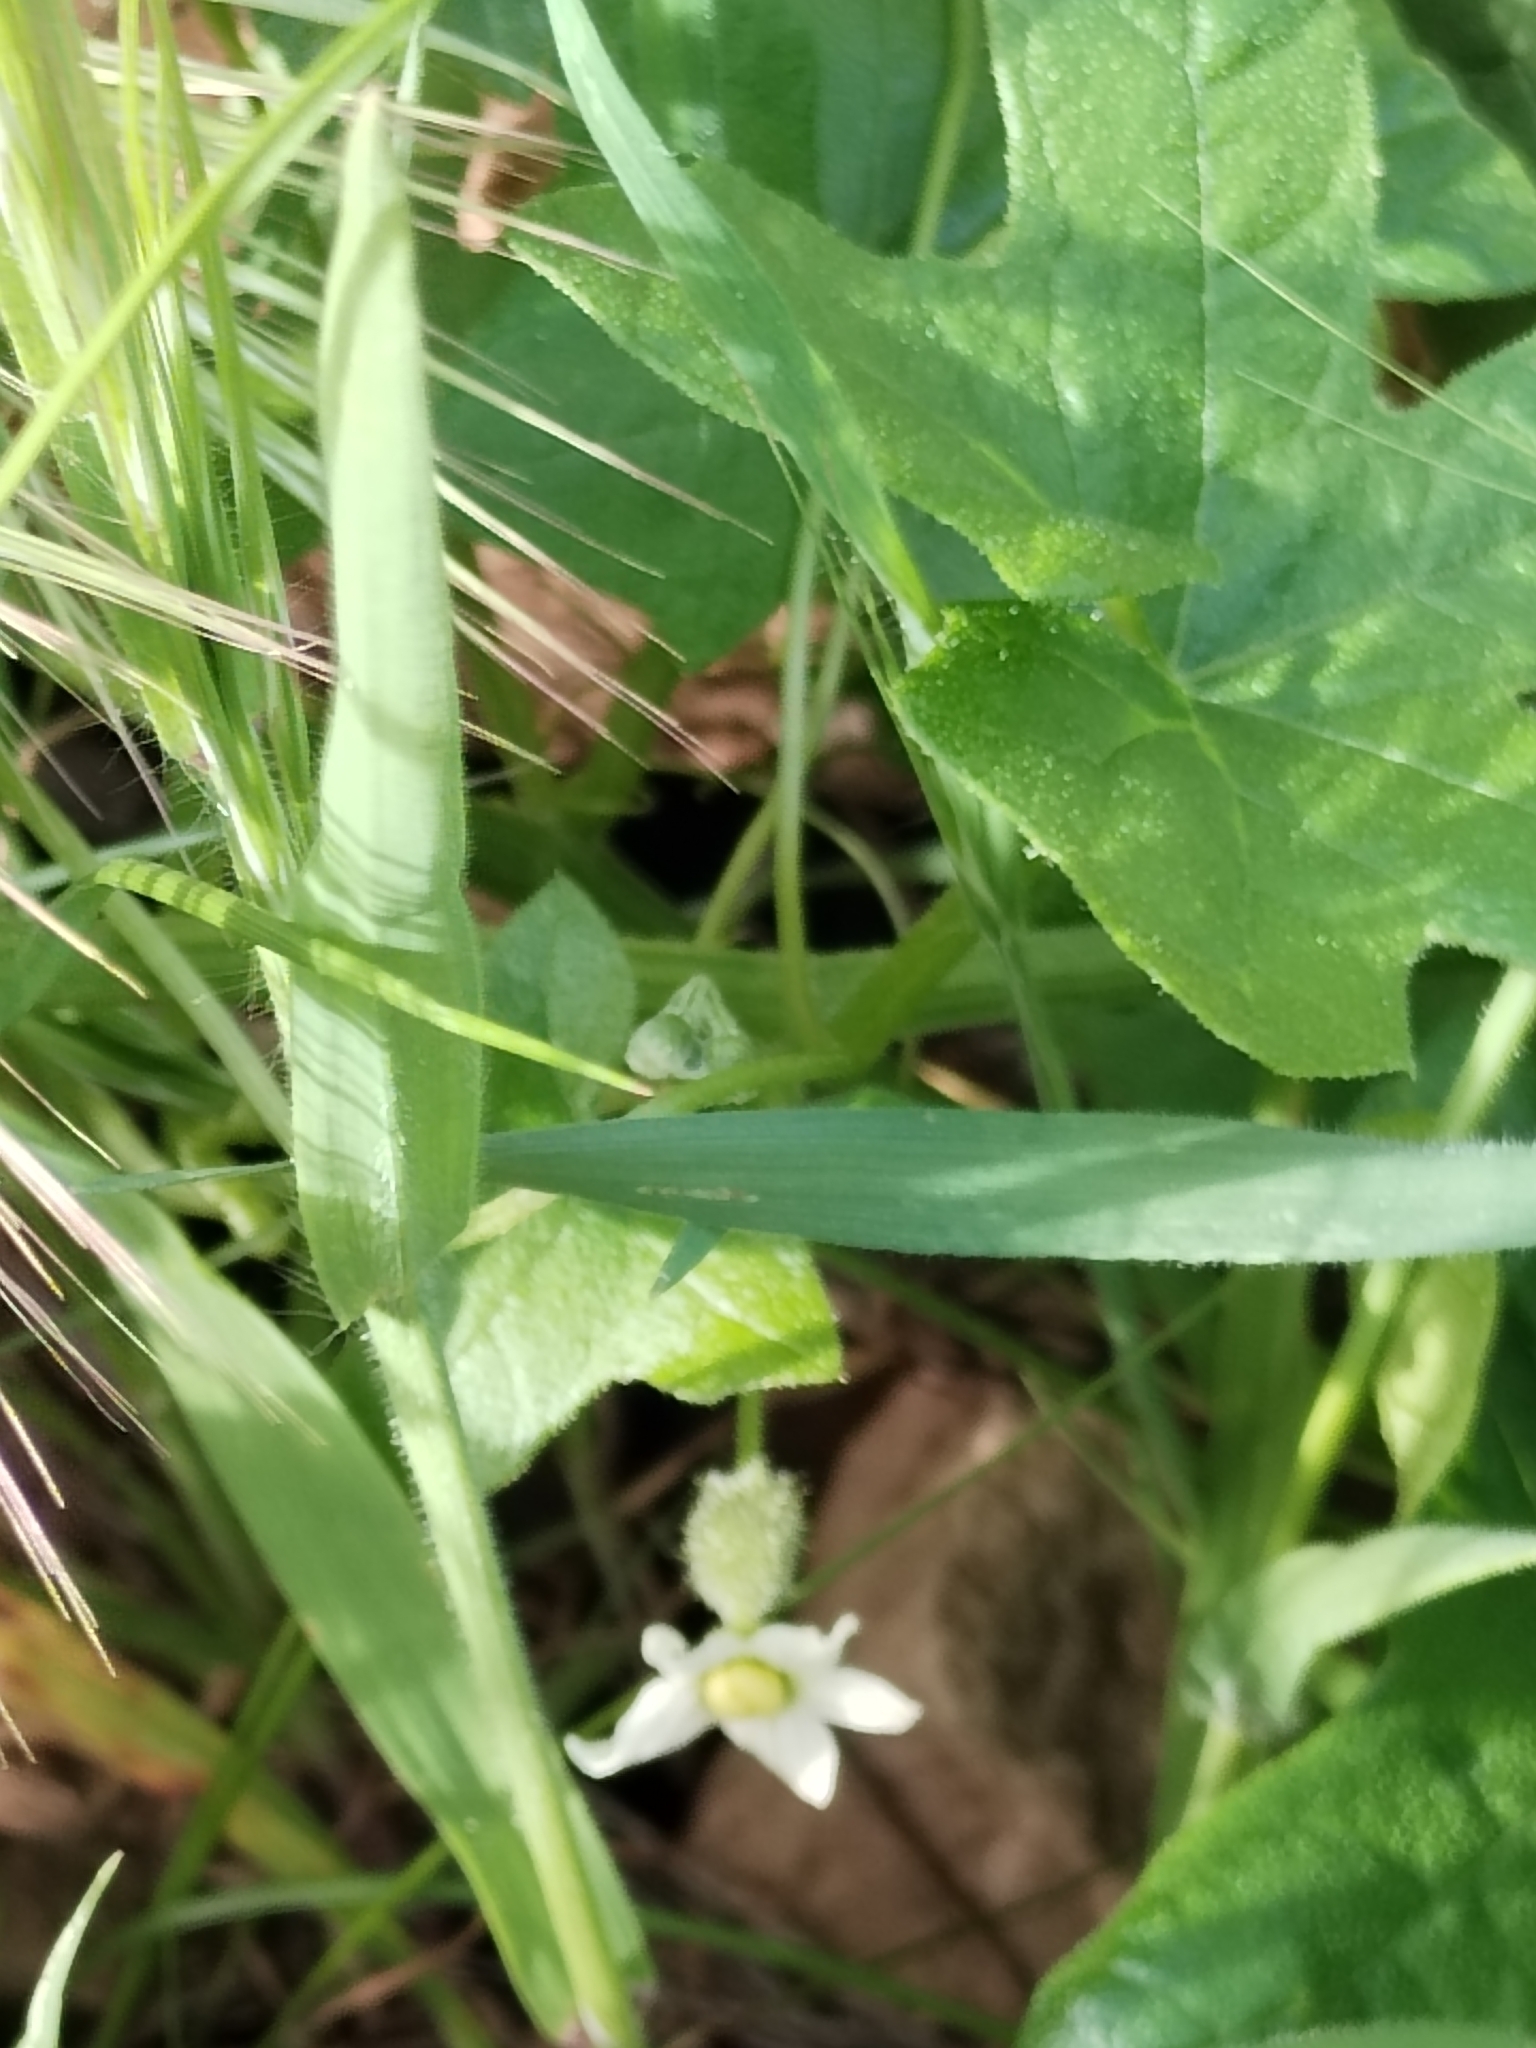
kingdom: Plantae
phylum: Tracheophyta
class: Magnoliopsida
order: Cucurbitales
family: Cucurbitaceae
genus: Marah
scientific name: Marah macrocarpa
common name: Cucamonga manroot
